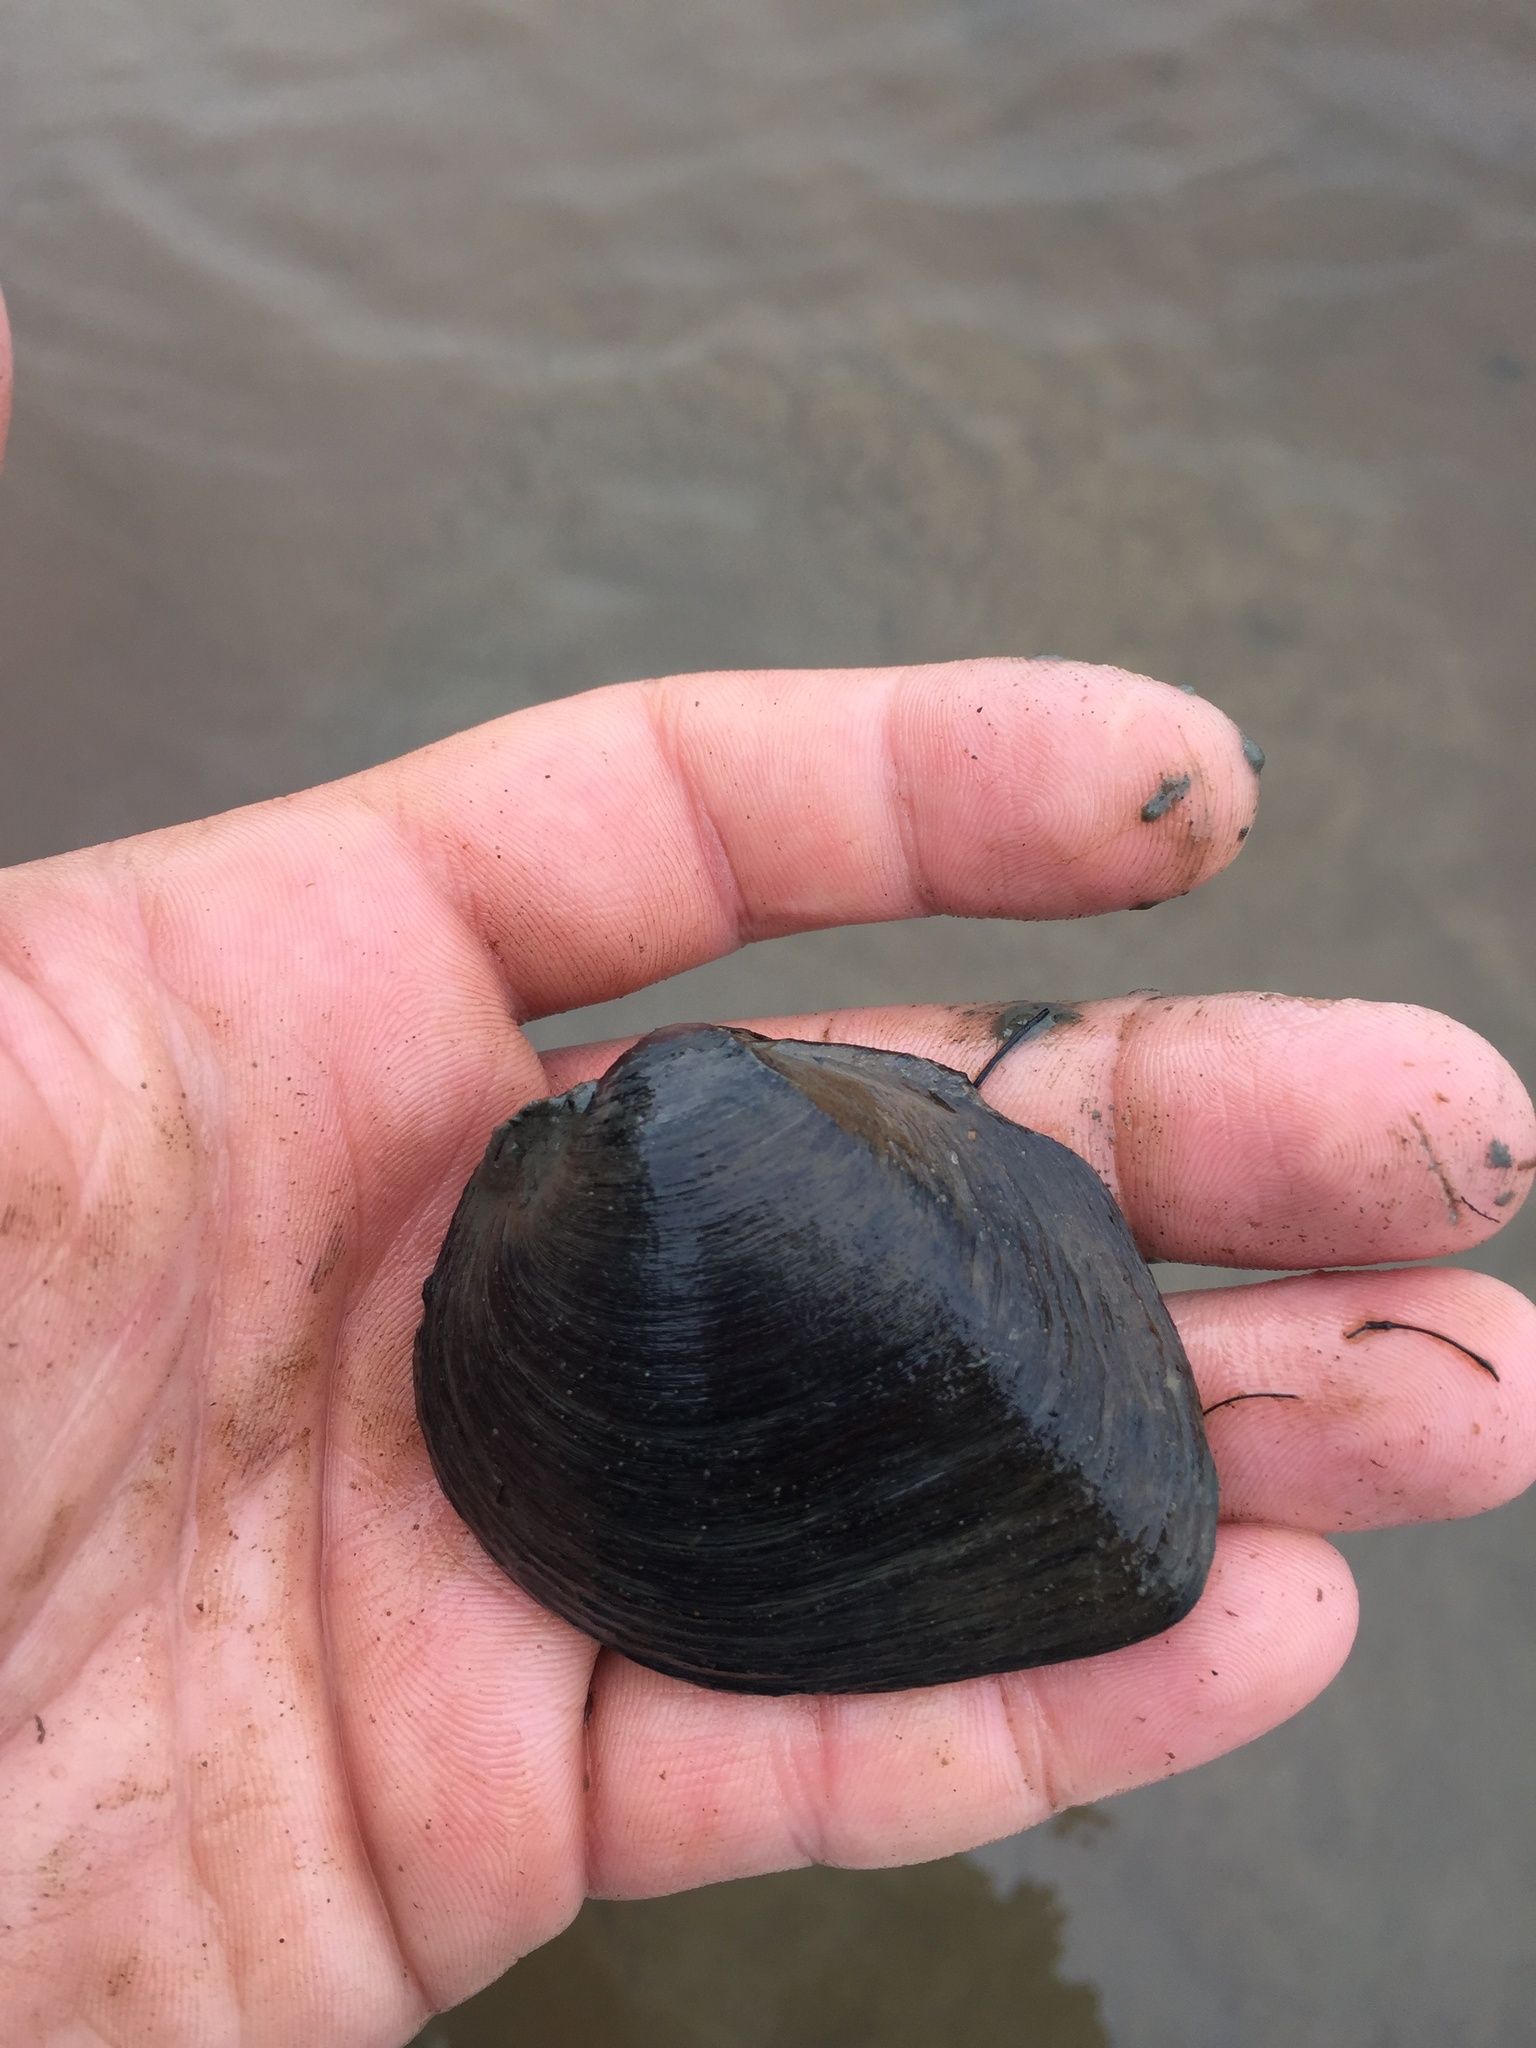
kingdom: Animalia
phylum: Mollusca
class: Bivalvia
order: Unionida
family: Unionidae
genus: Fusconaia
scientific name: Fusconaia escambia
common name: Narrow pigtoe
